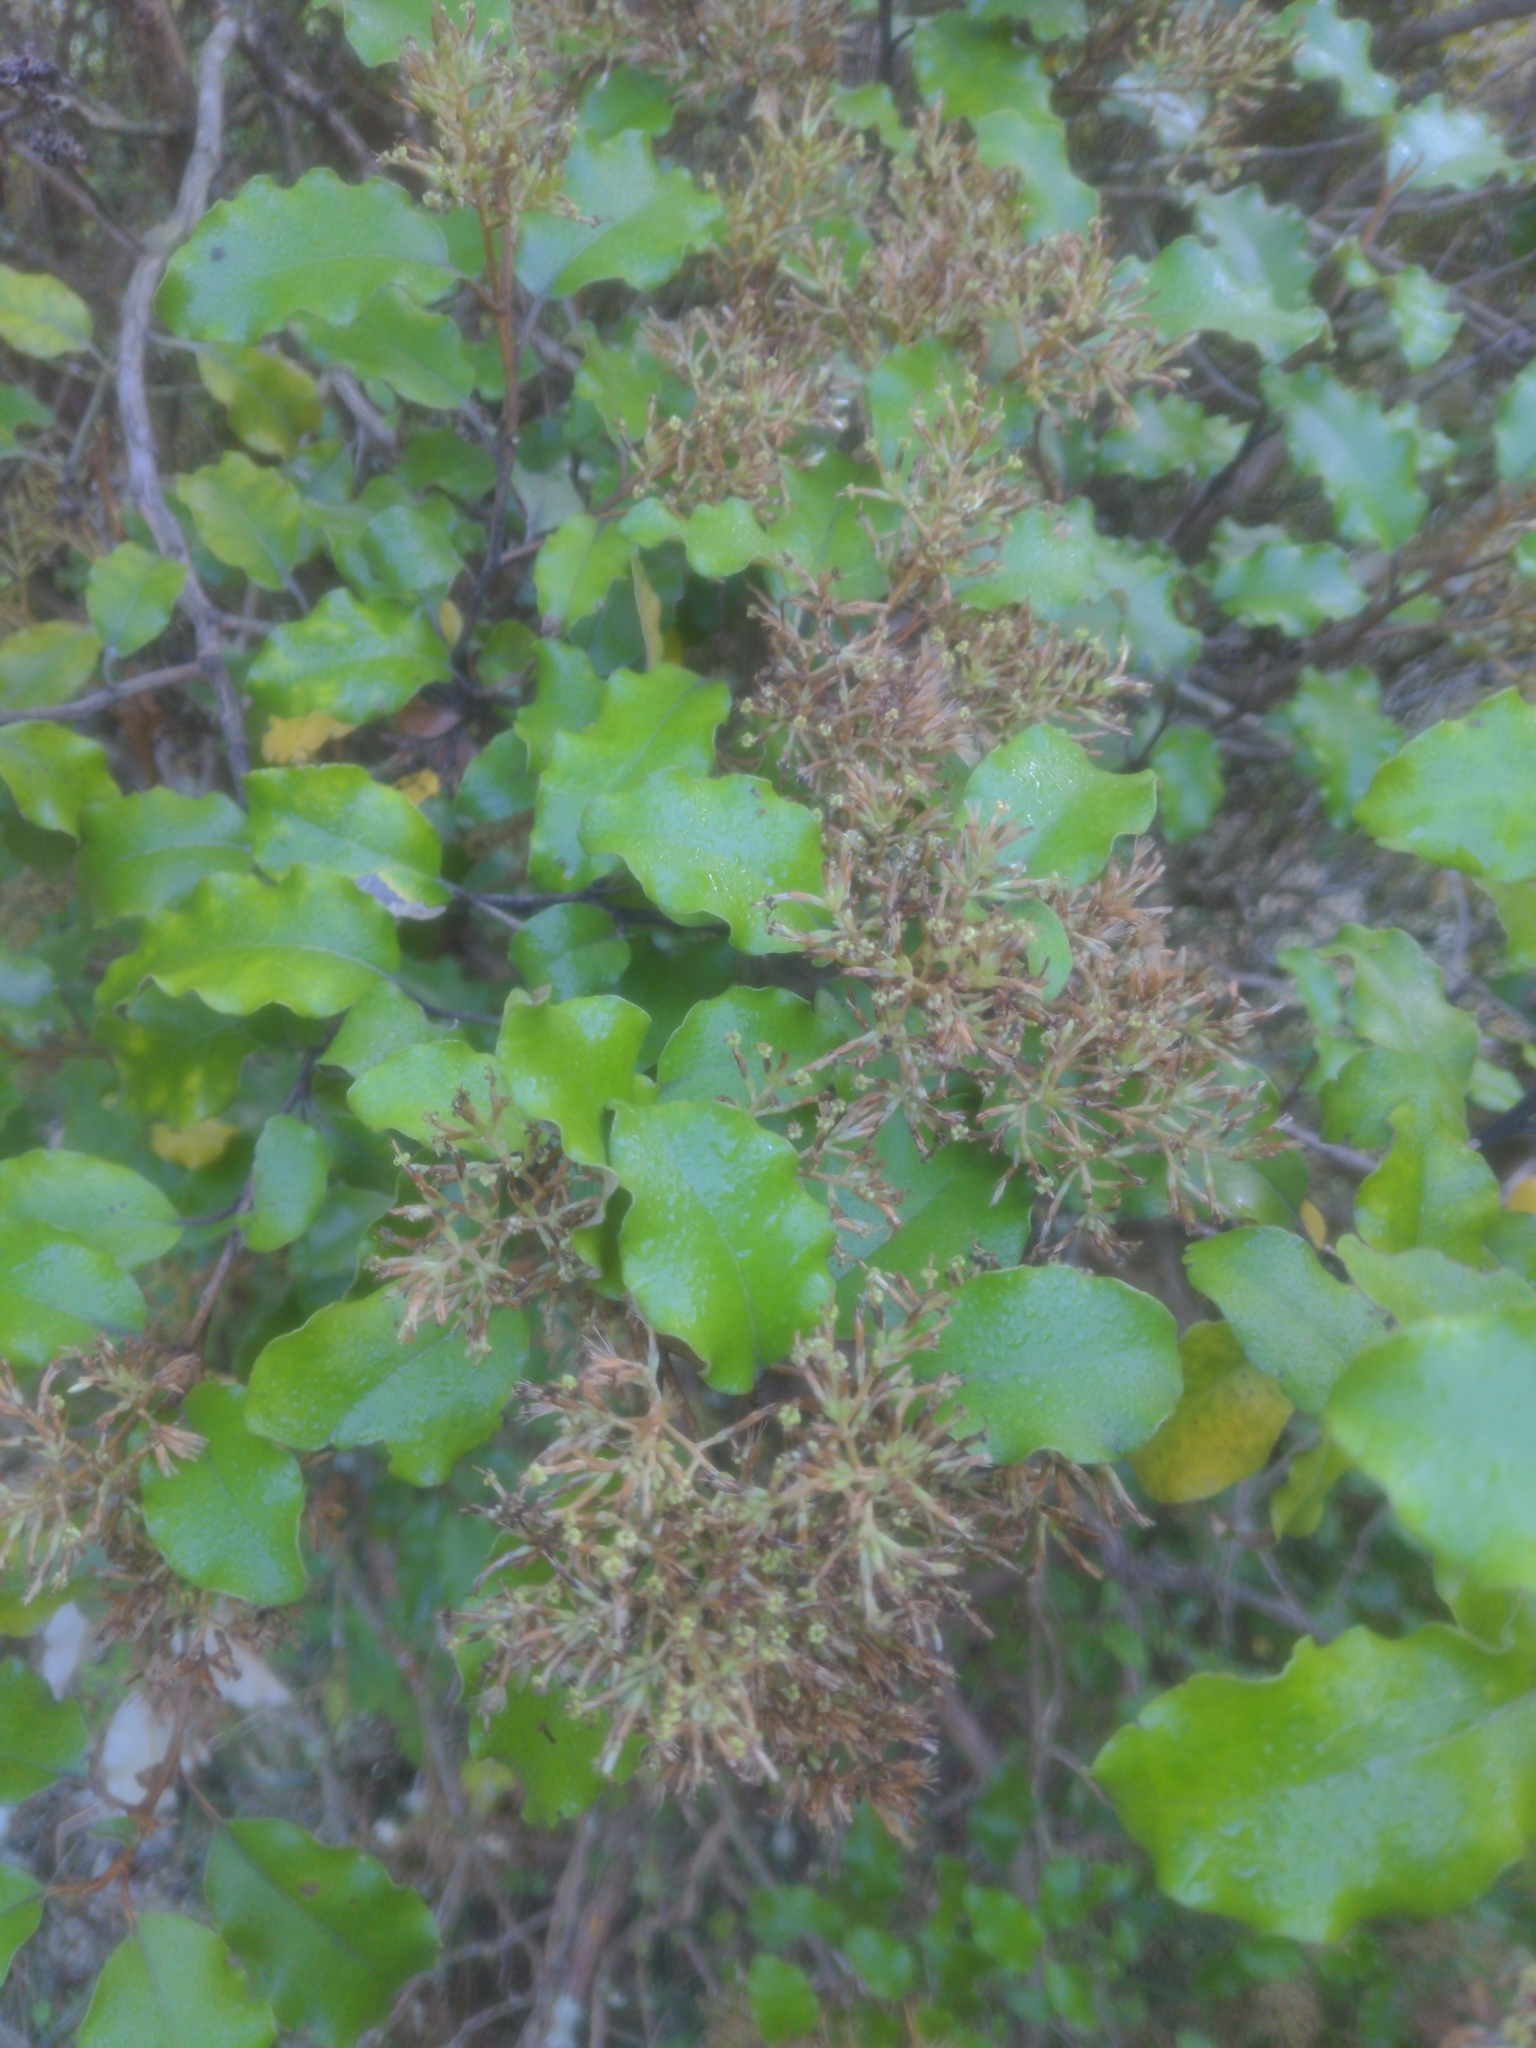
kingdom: Plantae
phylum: Tracheophyta
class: Magnoliopsida
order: Asterales
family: Asteraceae
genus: Olearia
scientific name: Olearia paniculata
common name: Akiraho
